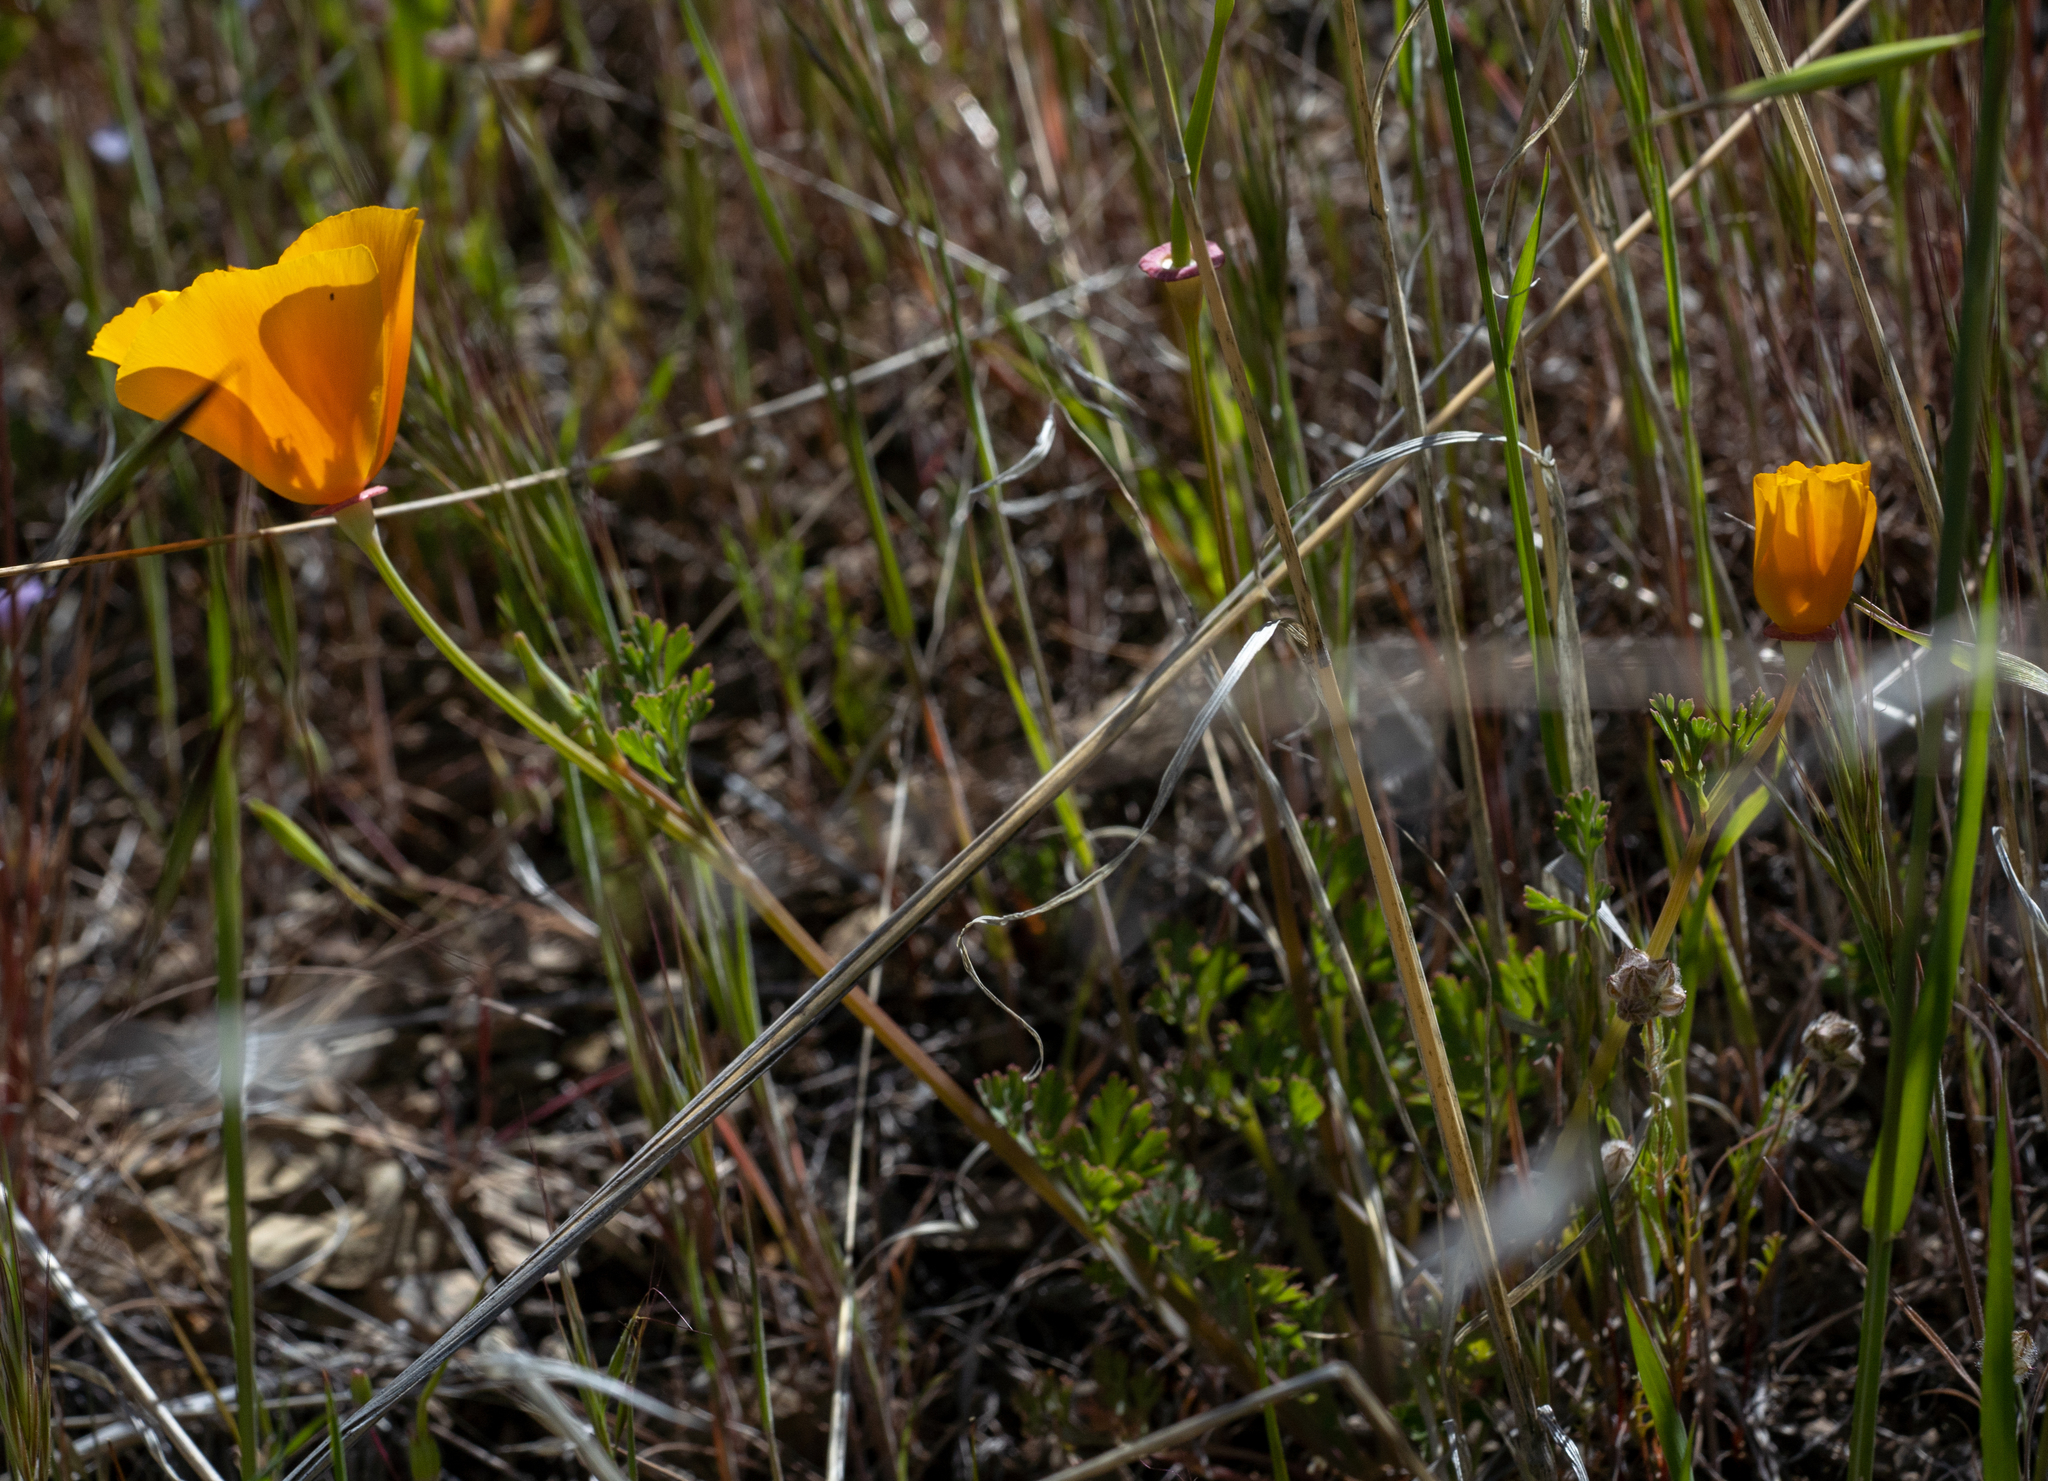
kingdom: Plantae
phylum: Tracheophyta
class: Magnoliopsida
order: Ranunculales
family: Papaveraceae
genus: Eschscholzia
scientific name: Eschscholzia californica
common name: California poppy
